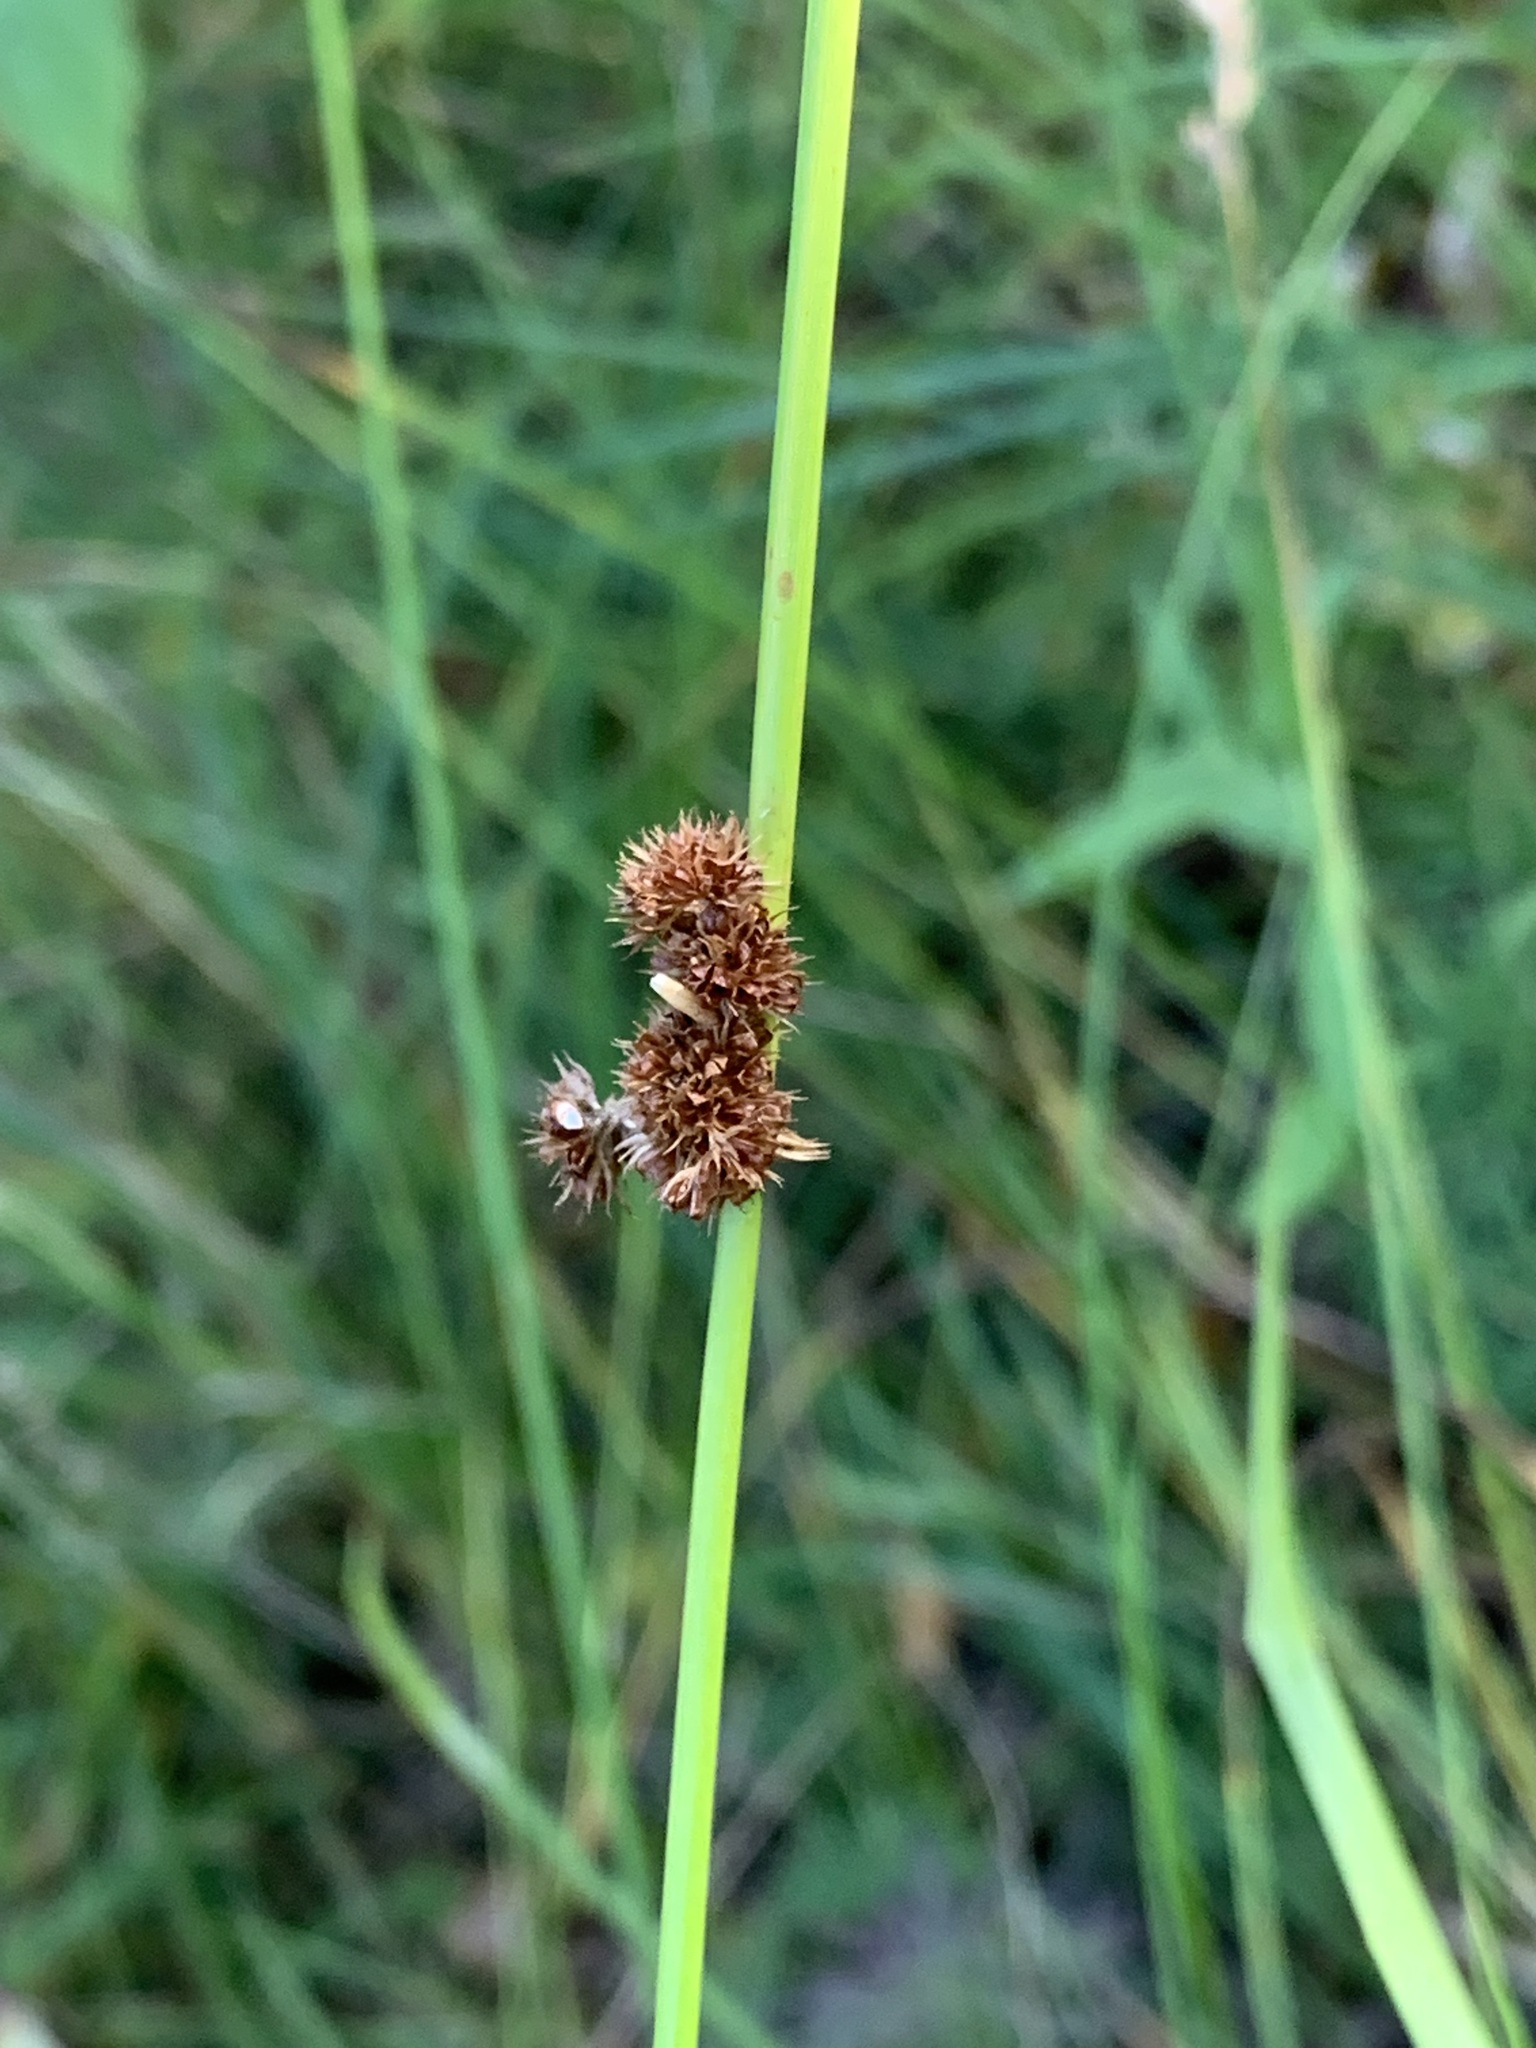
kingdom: Plantae
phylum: Tracheophyta
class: Liliopsida
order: Poales
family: Juncaceae
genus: Juncus
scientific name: Juncus conglomeratus
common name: Compact rush
